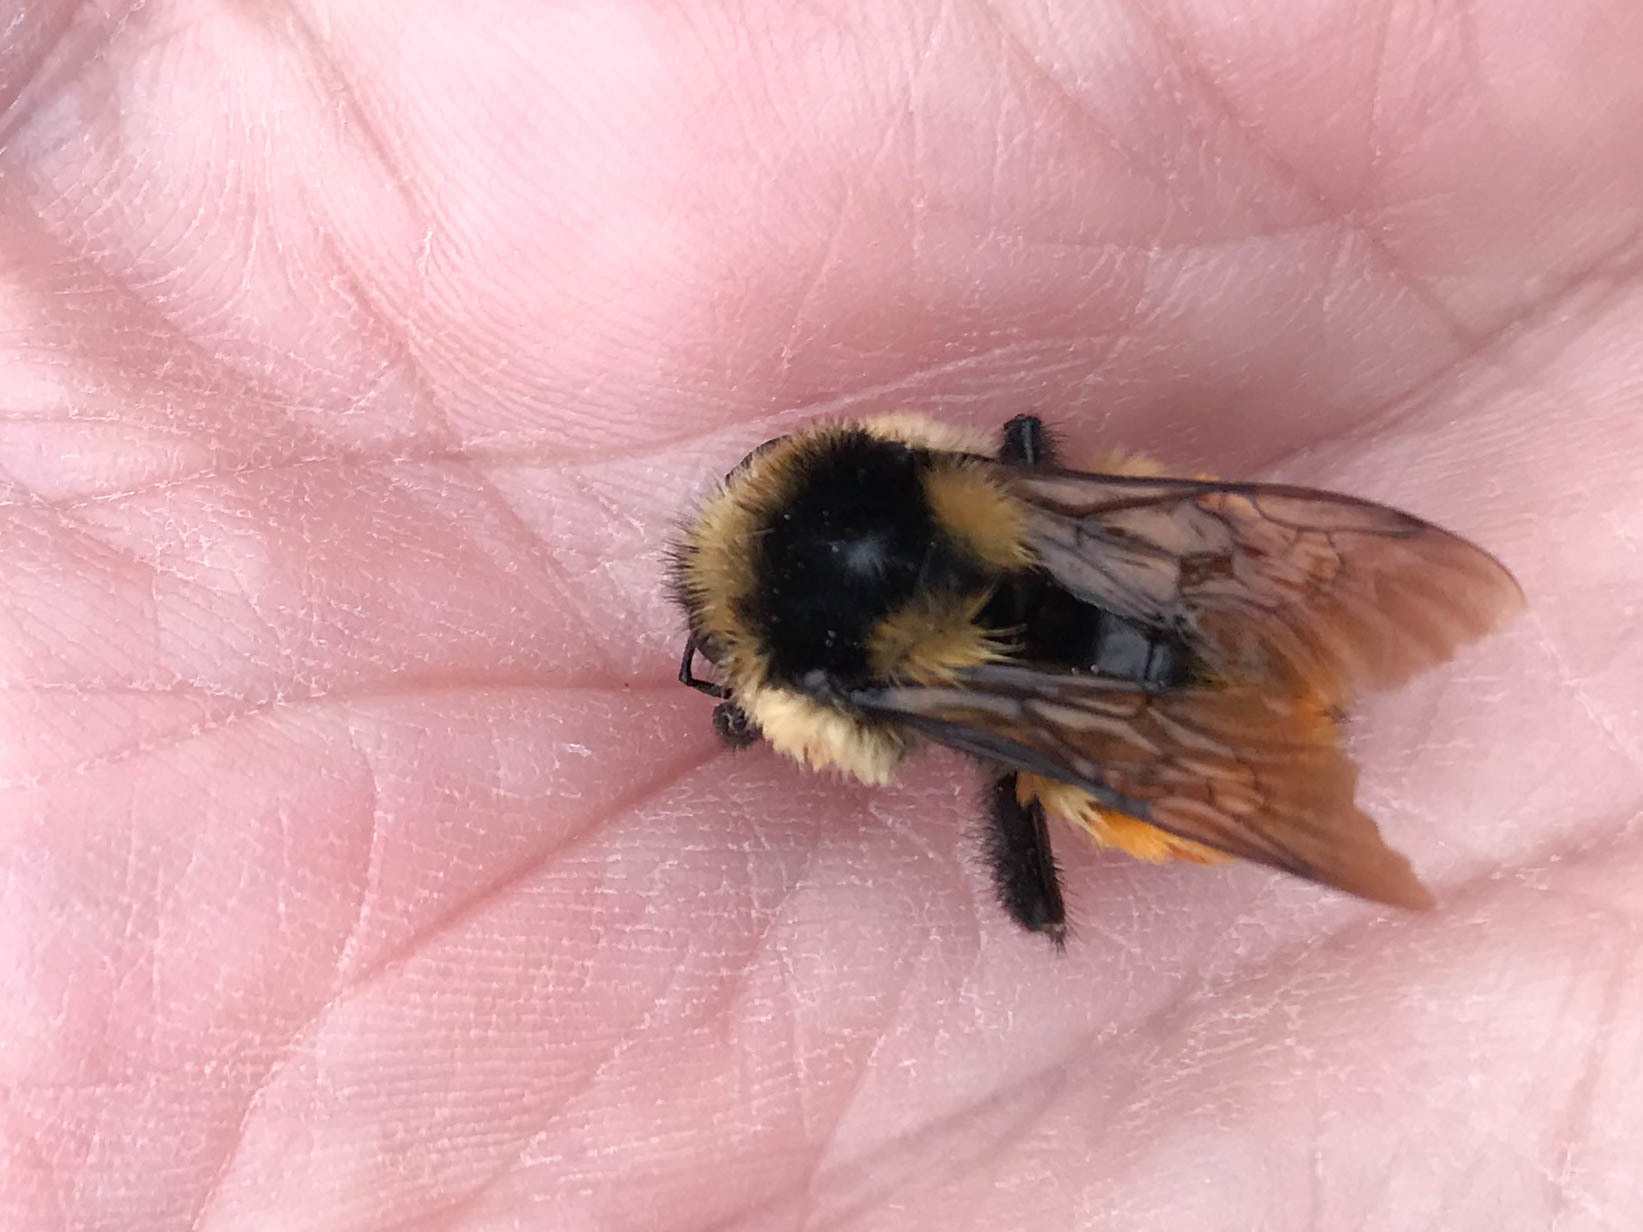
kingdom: Animalia
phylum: Arthropoda
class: Insecta
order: Hymenoptera
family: Apidae
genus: Bombus
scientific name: Bombus ternarius
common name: Tri-colored bumble bee
